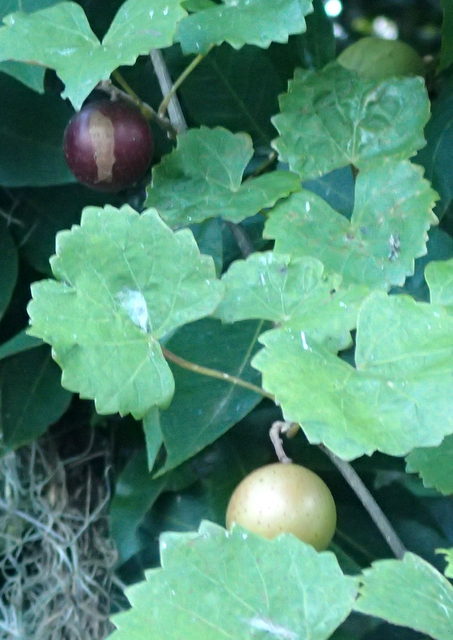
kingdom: Plantae
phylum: Tracheophyta
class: Magnoliopsida
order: Vitales
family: Vitaceae
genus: Vitis
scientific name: Vitis rotundifolia
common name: Muscadine grape
